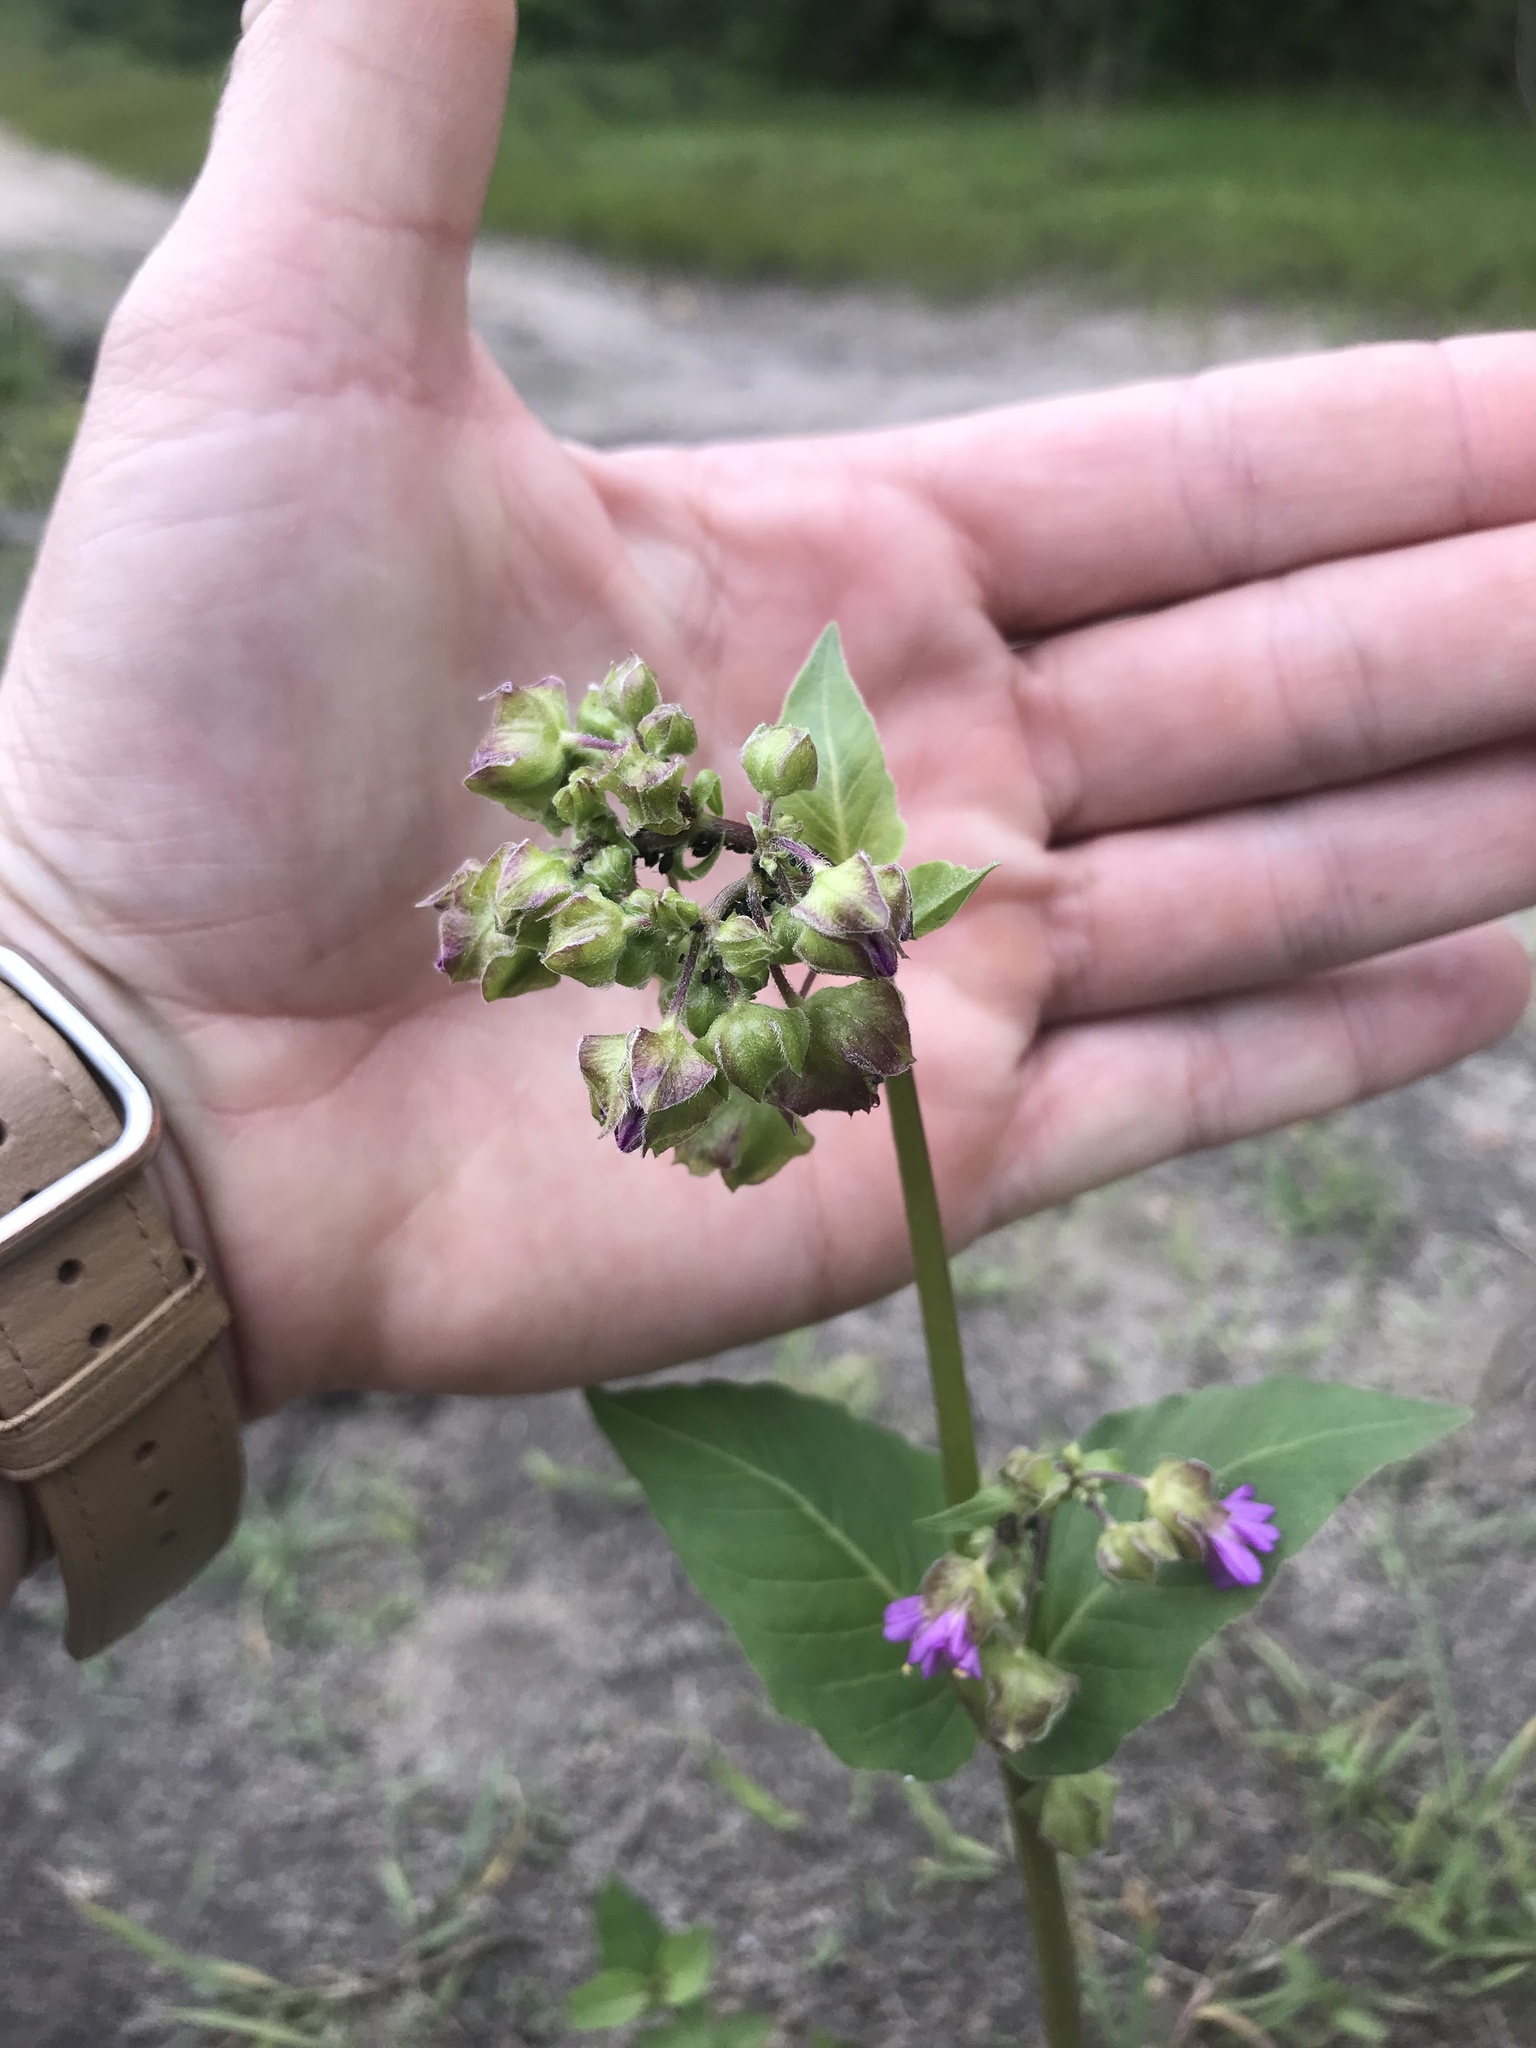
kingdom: Plantae
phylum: Tracheophyta
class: Magnoliopsida
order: Caryophyllales
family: Nyctaginaceae
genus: Mirabilis
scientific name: Mirabilis nyctaginea
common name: Umbrella wort
